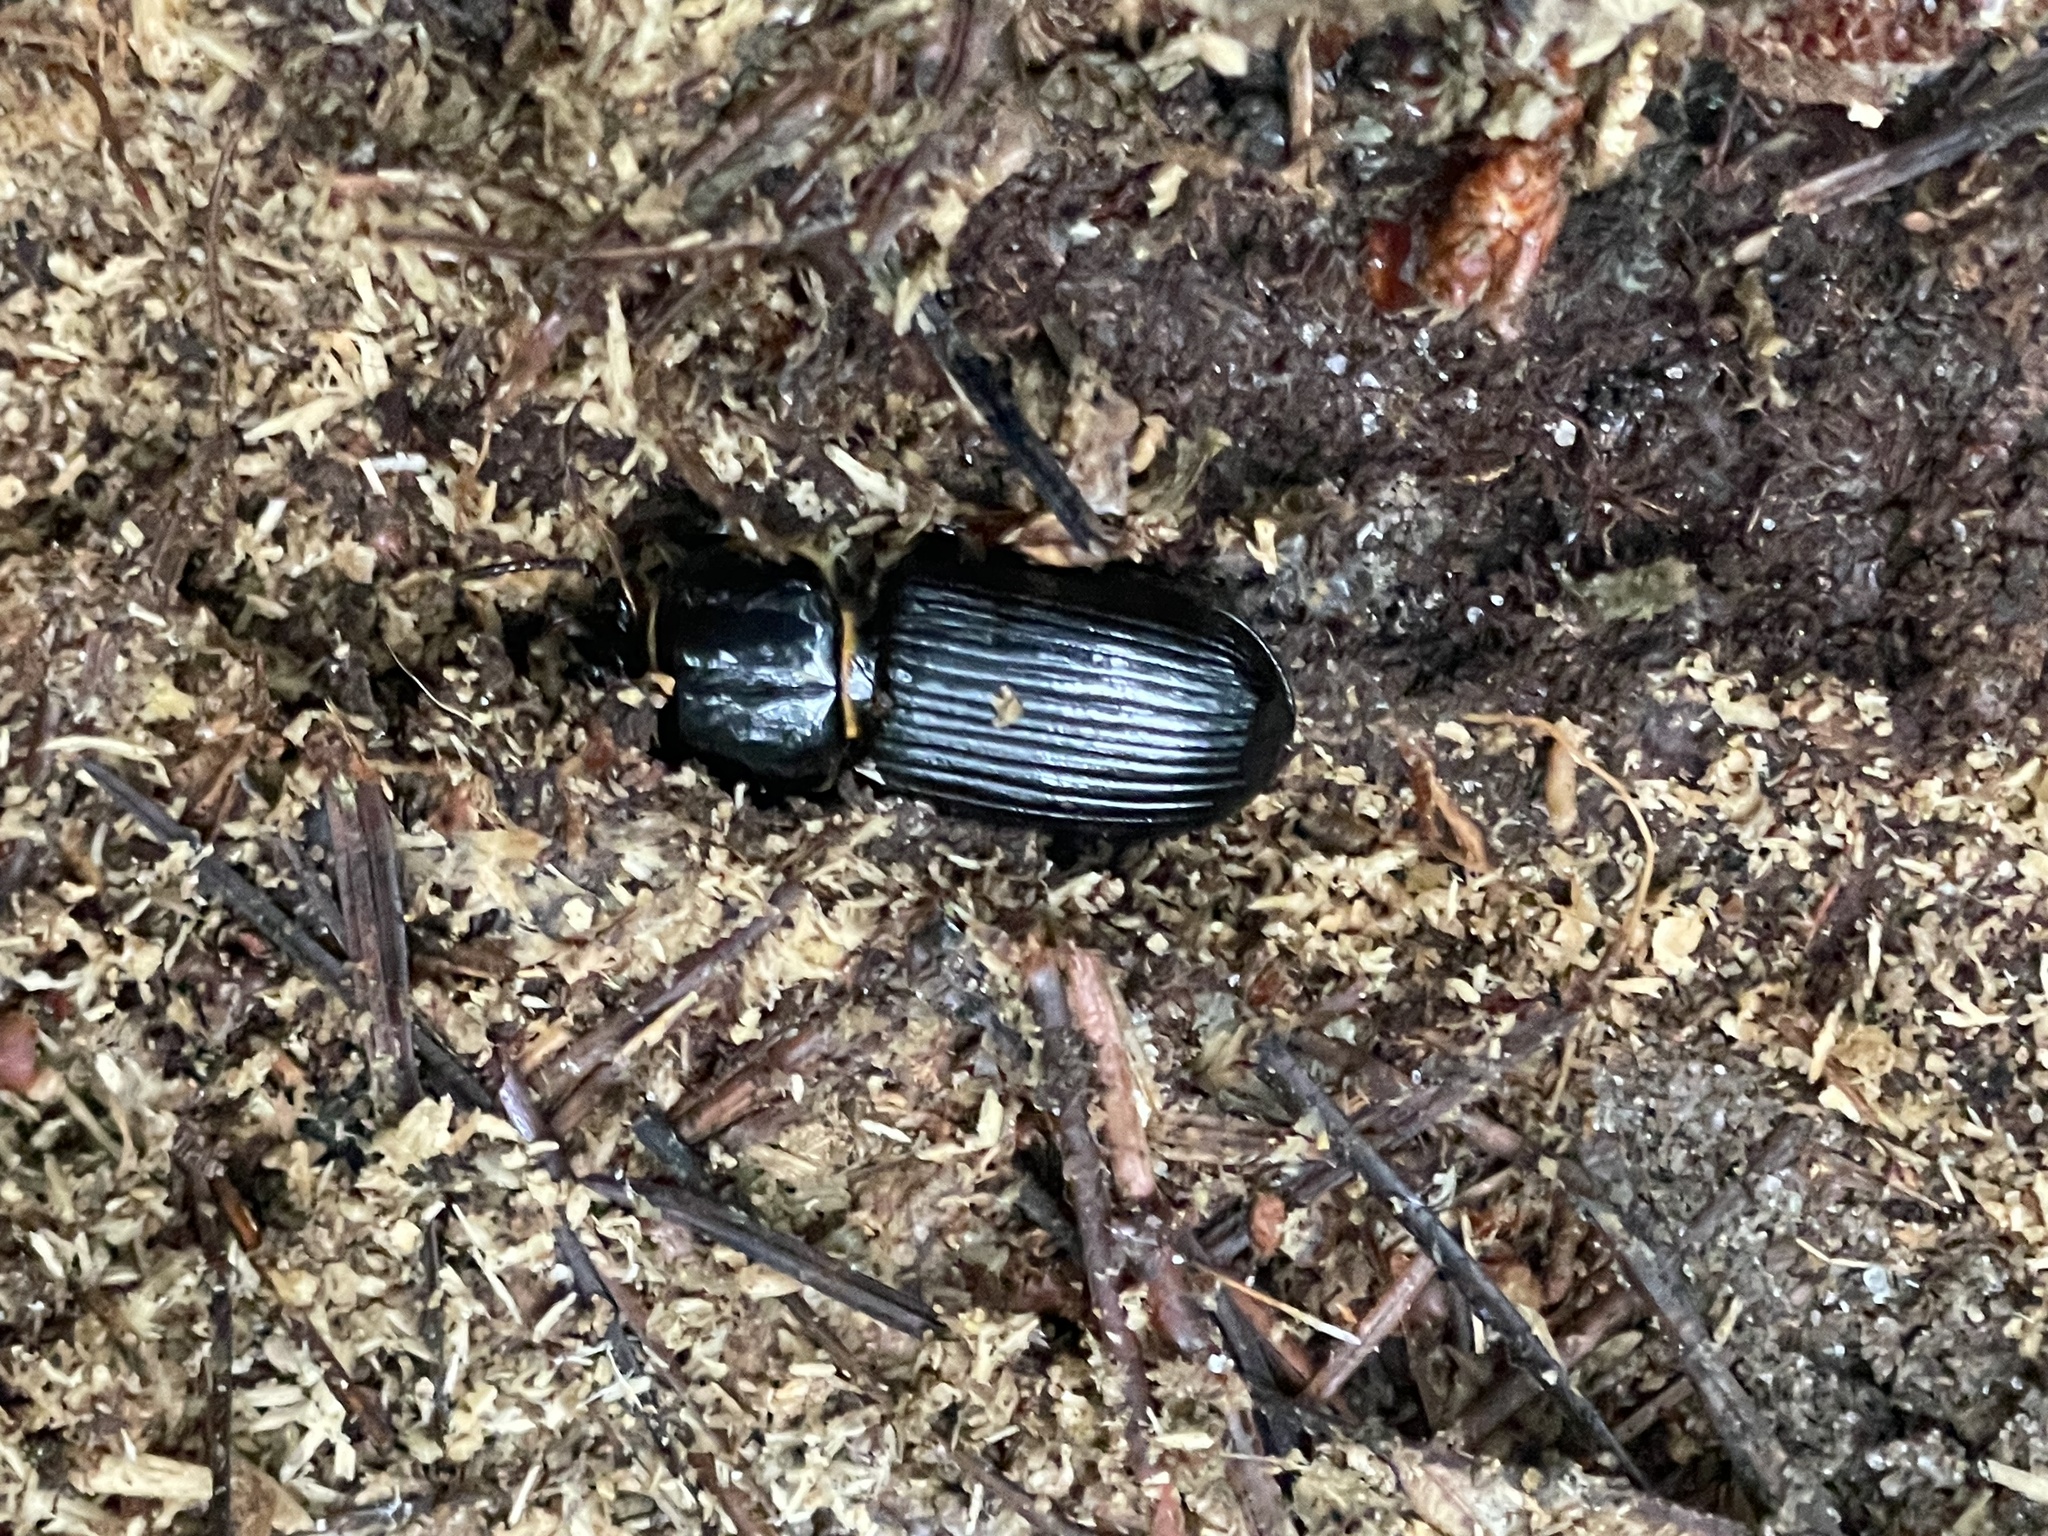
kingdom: Animalia
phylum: Arthropoda
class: Insecta
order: Coleoptera
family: Passalidae
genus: Odontotaenius
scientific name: Odontotaenius disjunctus
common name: Patent leather beetle
